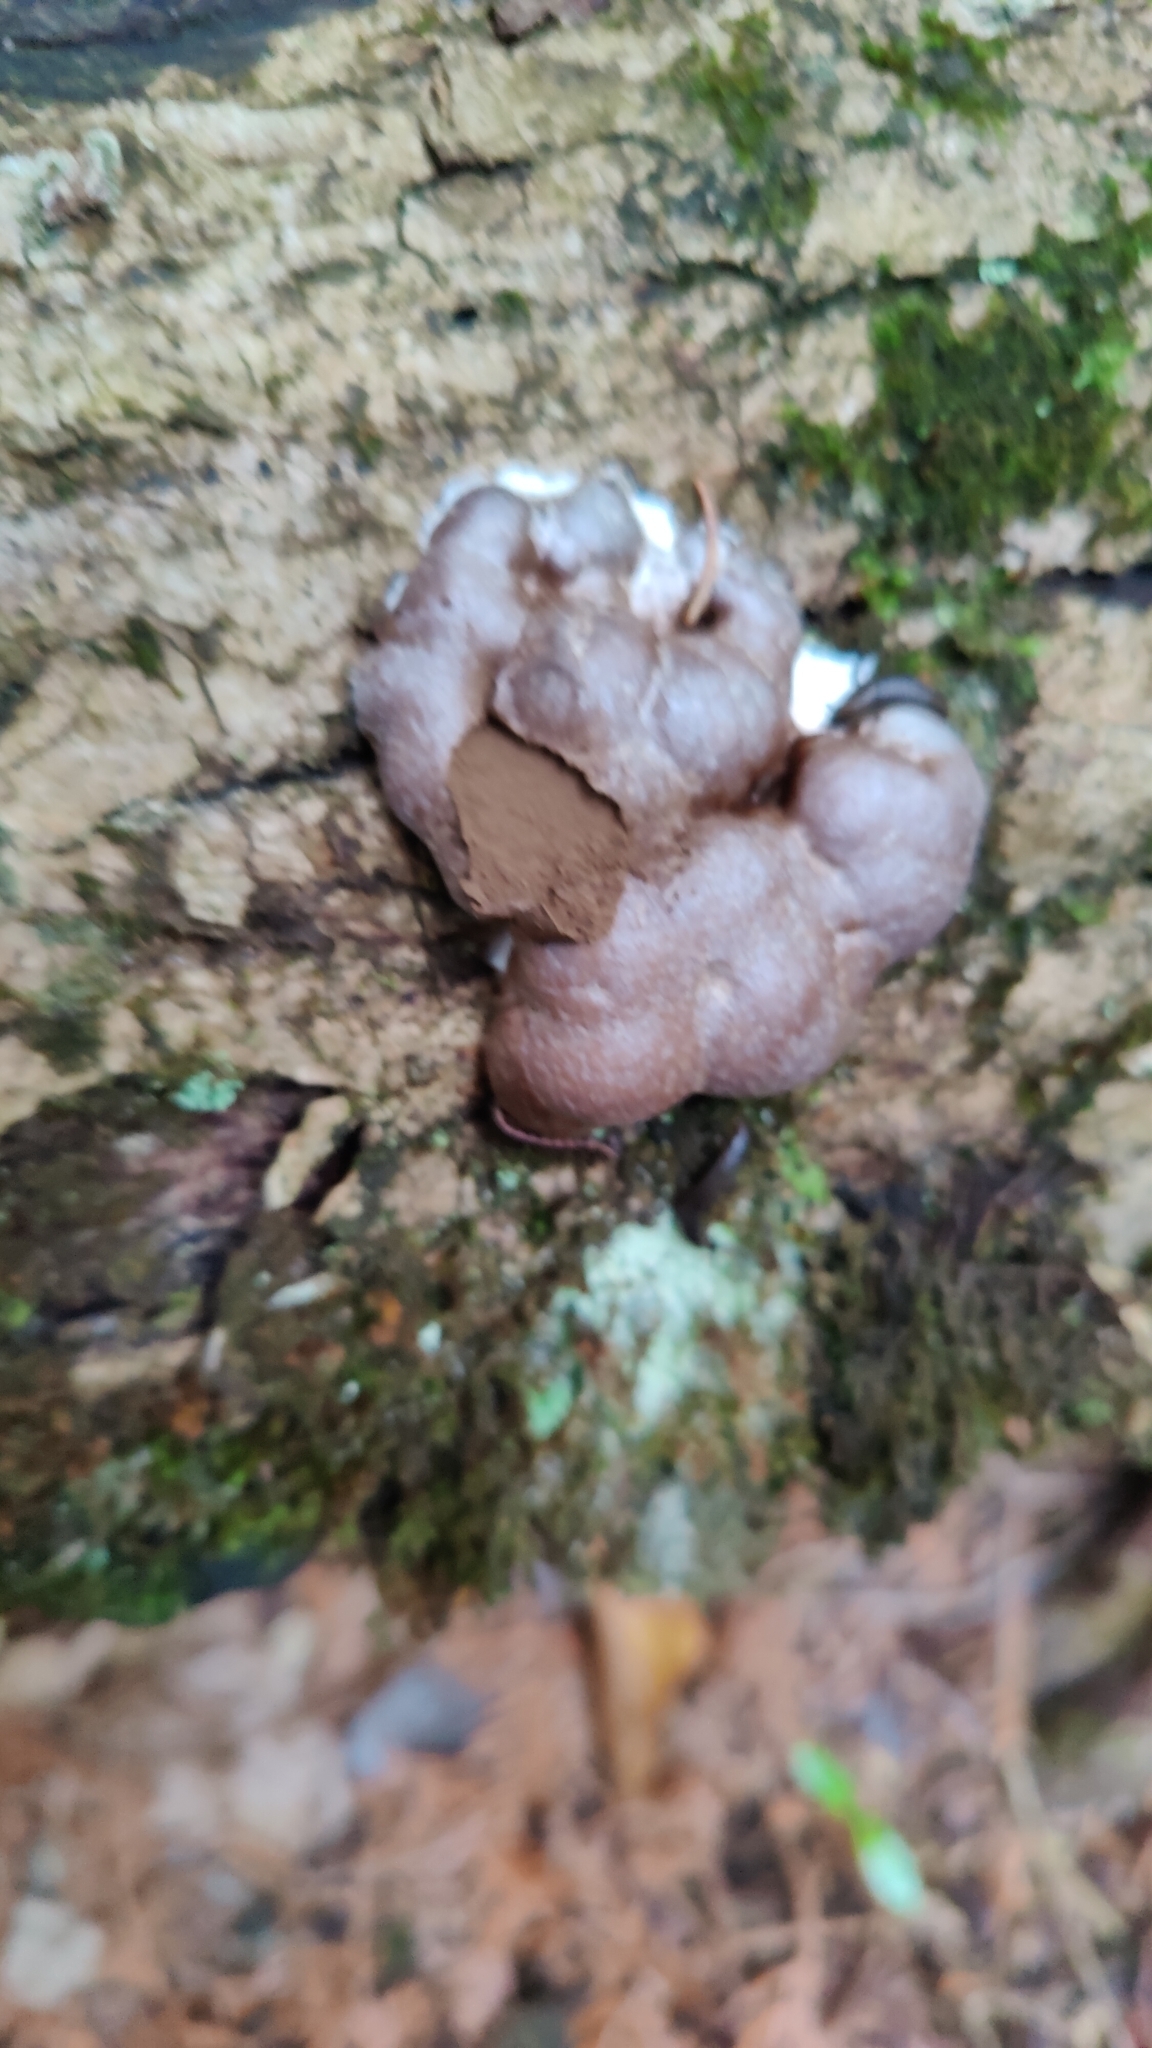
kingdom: Protozoa
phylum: Mycetozoa
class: Myxomycetes
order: Cribrariales
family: Tubiferaceae
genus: Reticularia
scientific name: Reticularia lycoperdon
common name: False puffball
